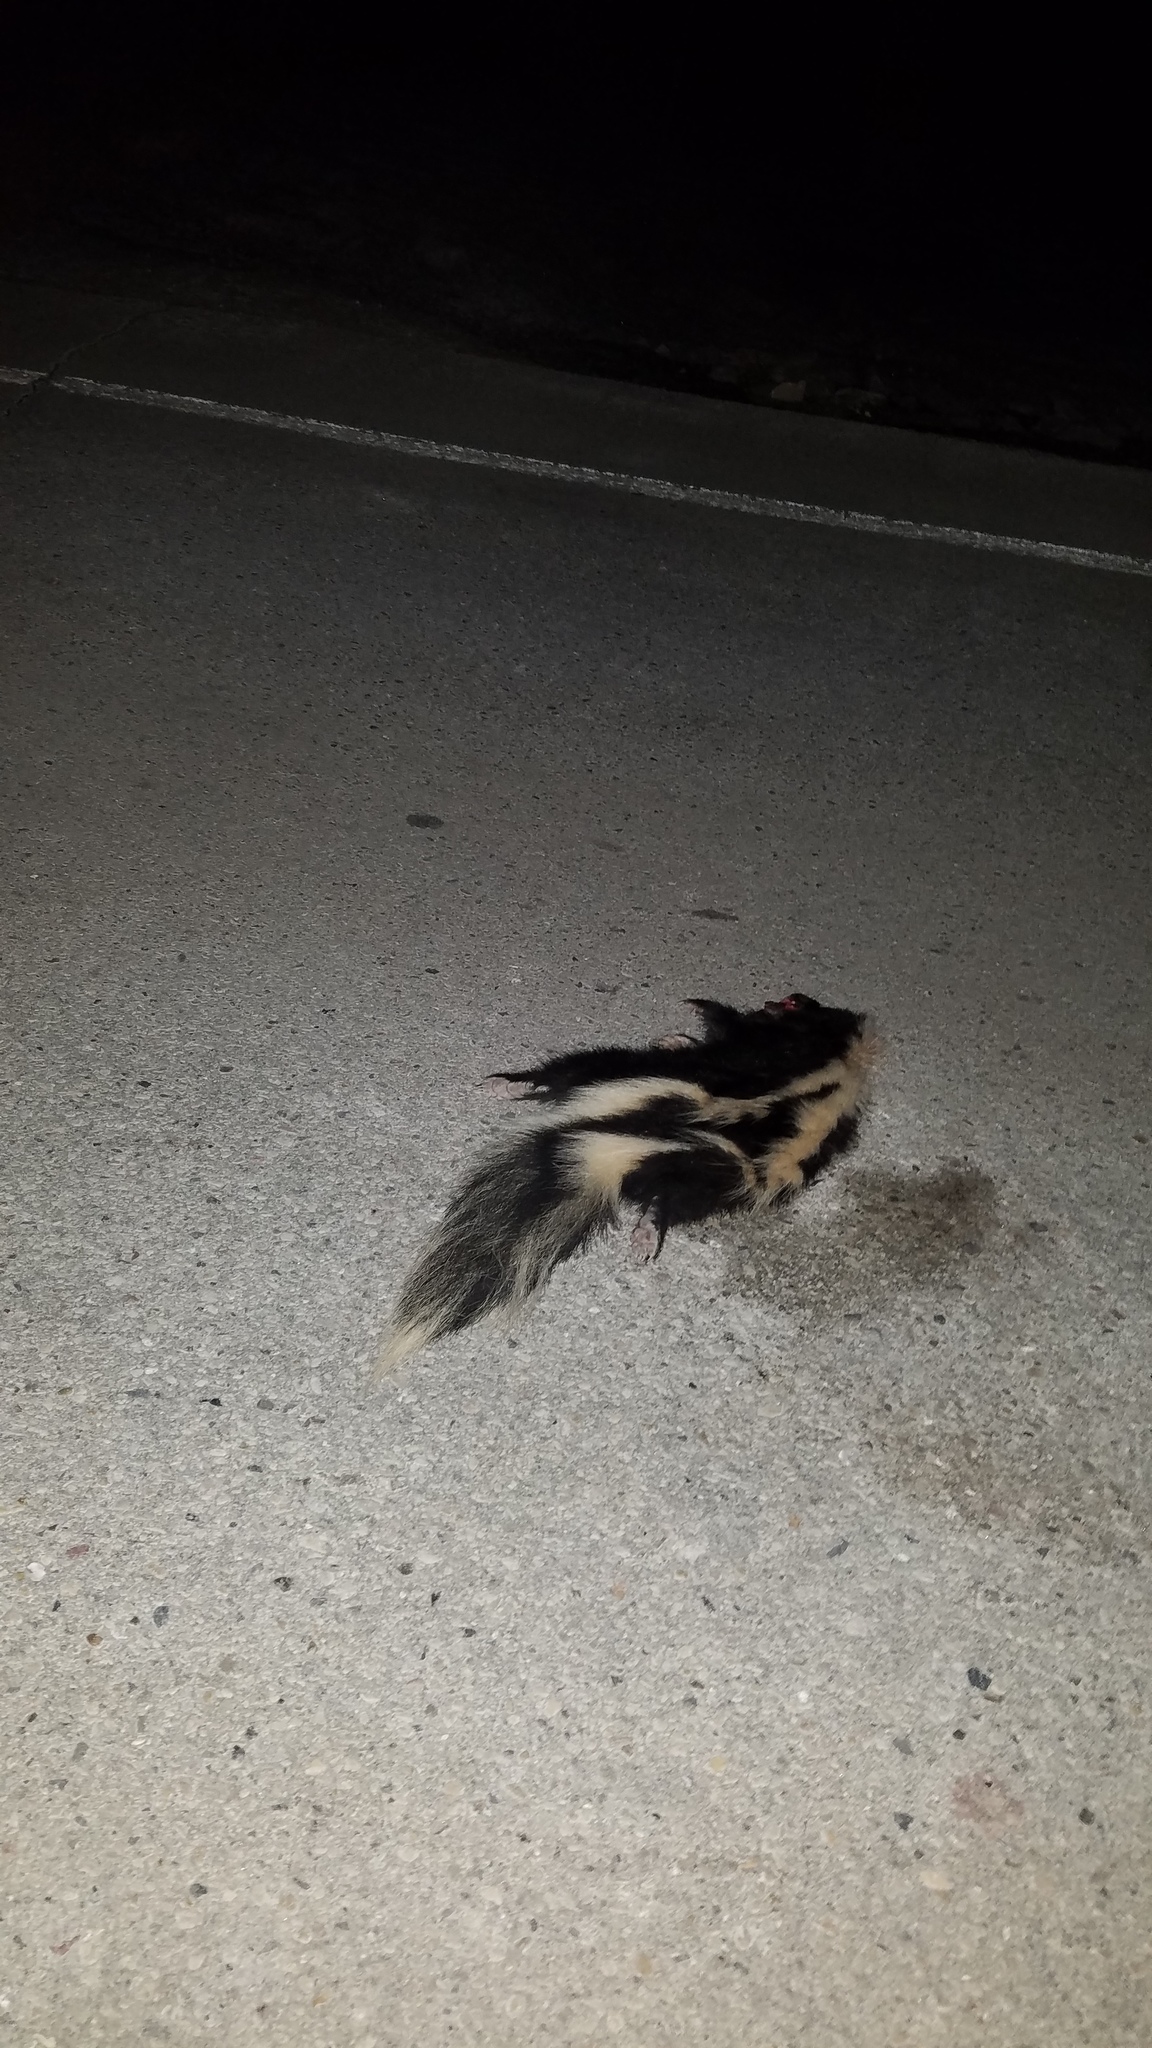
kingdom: Animalia
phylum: Chordata
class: Mammalia
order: Carnivora
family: Mephitidae
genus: Mephitis
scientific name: Mephitis mephitis
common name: Striped skunk
